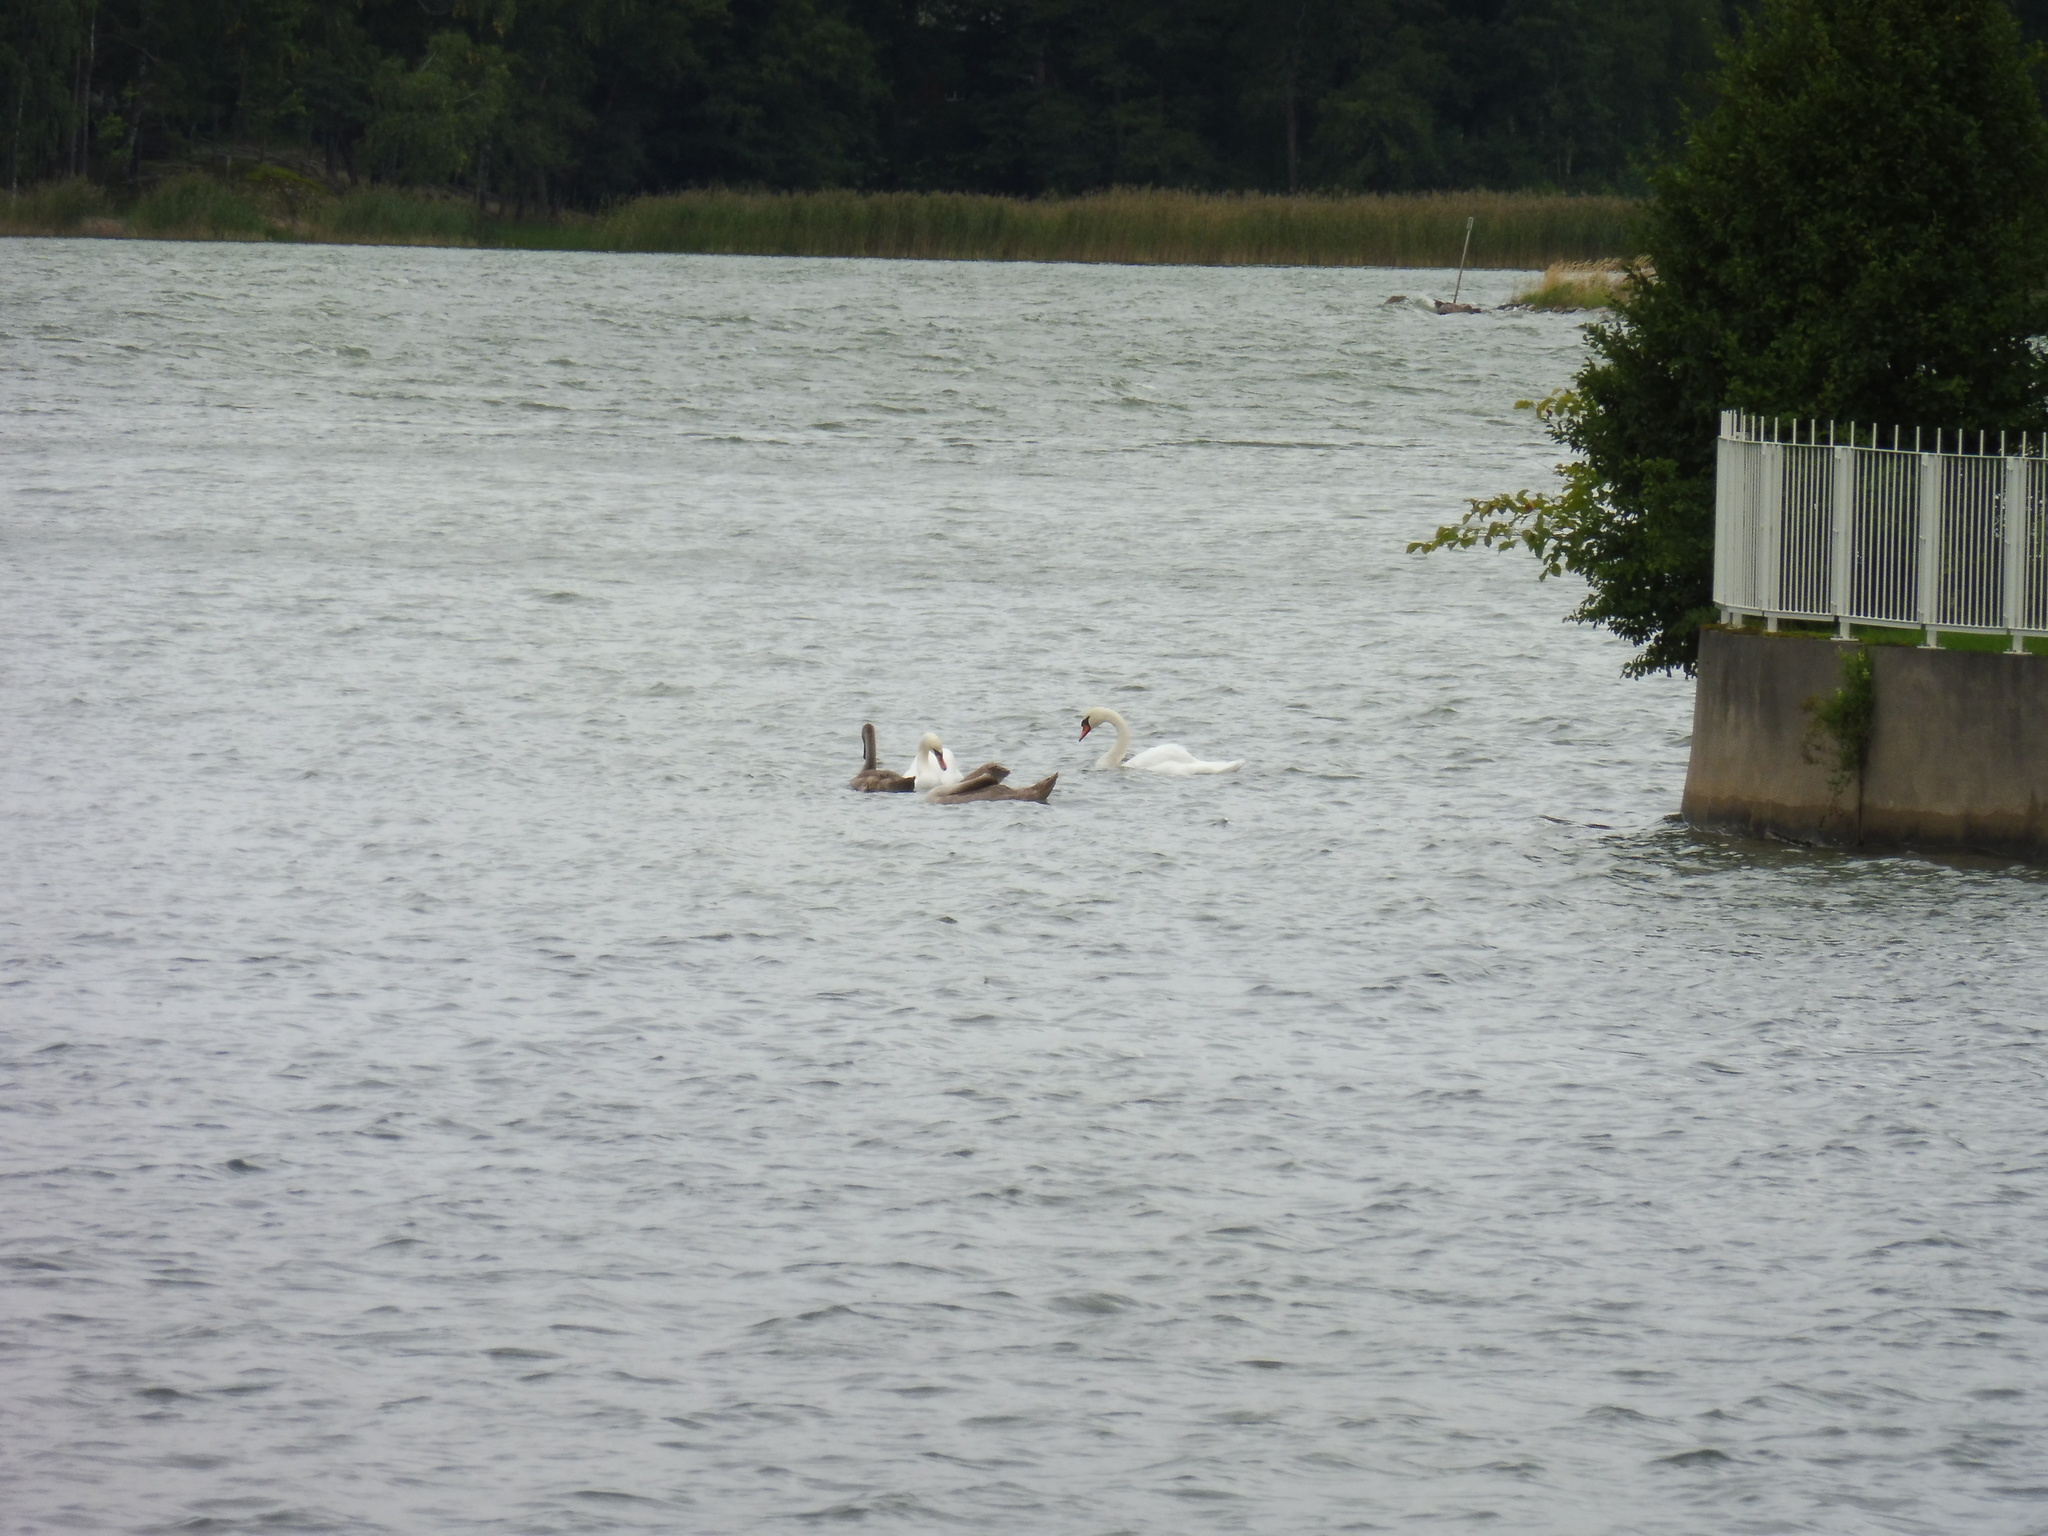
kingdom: Animalia
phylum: Chordata
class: Aves
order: Anseriformes
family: Anatidae
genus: Cygnus
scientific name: Cygnus olor
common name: Mute swan
